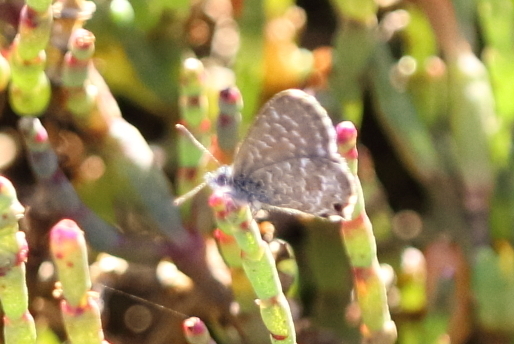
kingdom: Animalia
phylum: Arthropoda
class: Insecta
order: Lepidoptera
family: Lycaenidae
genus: Theclinesthes
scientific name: Theclinesthes sulpitius
